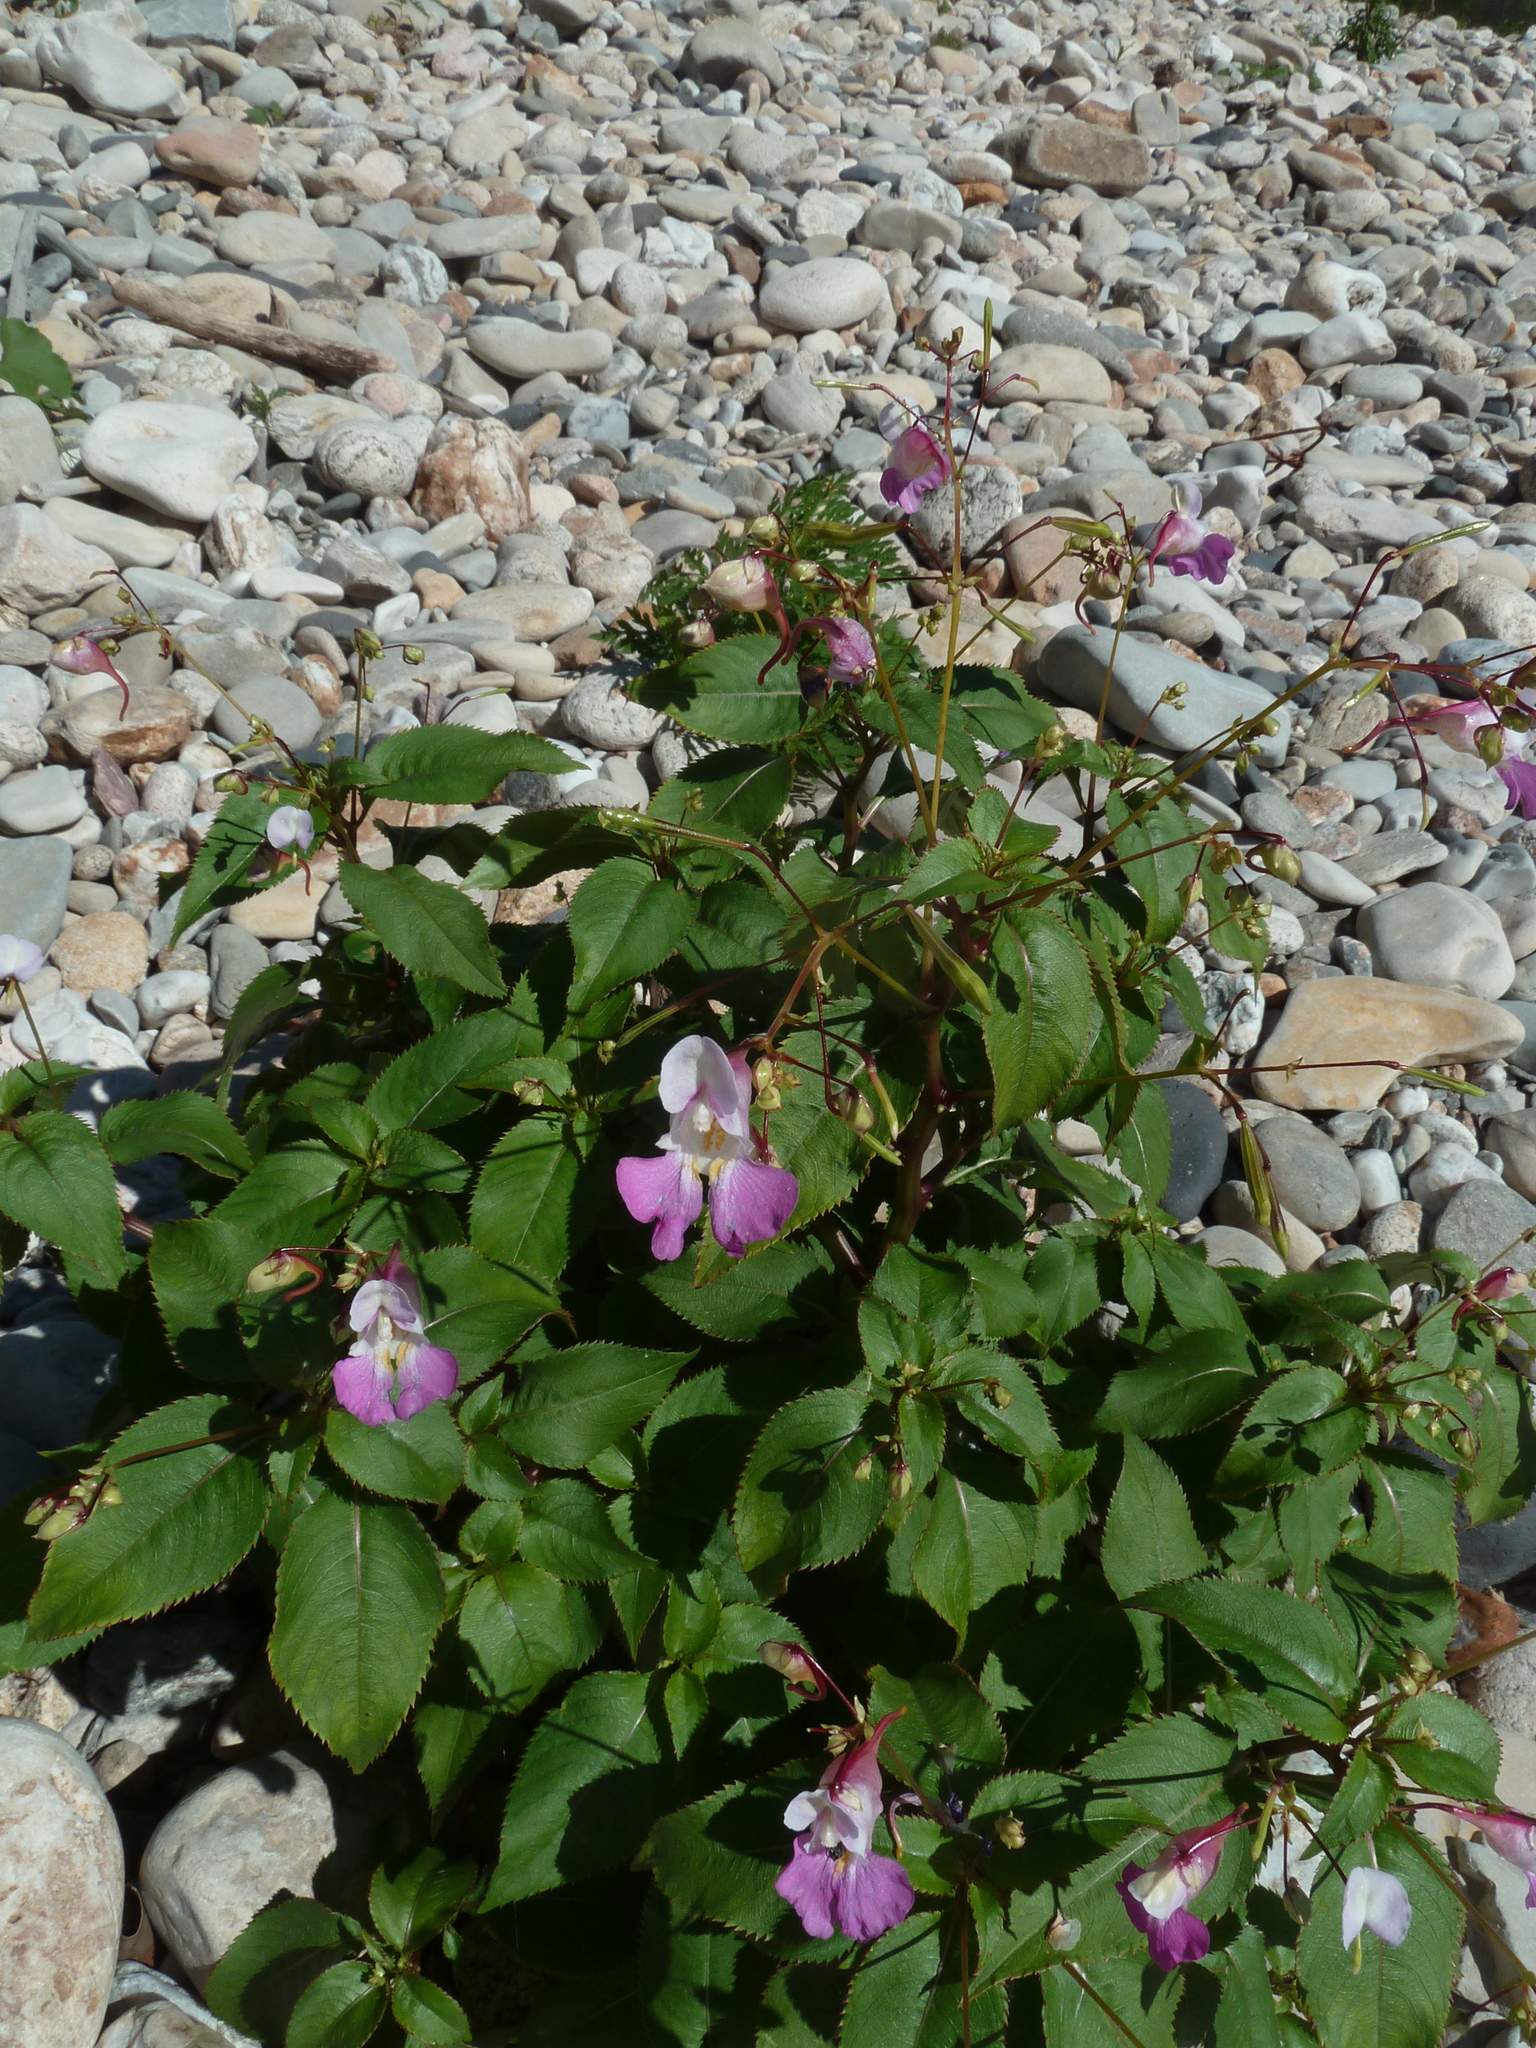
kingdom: Plantae
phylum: Tracheophyta
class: Magnoliopsida
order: Ericales
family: Balsaminaceae
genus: Impatiens
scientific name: Impatiens balfourii
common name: Balfour's touch-me-not
